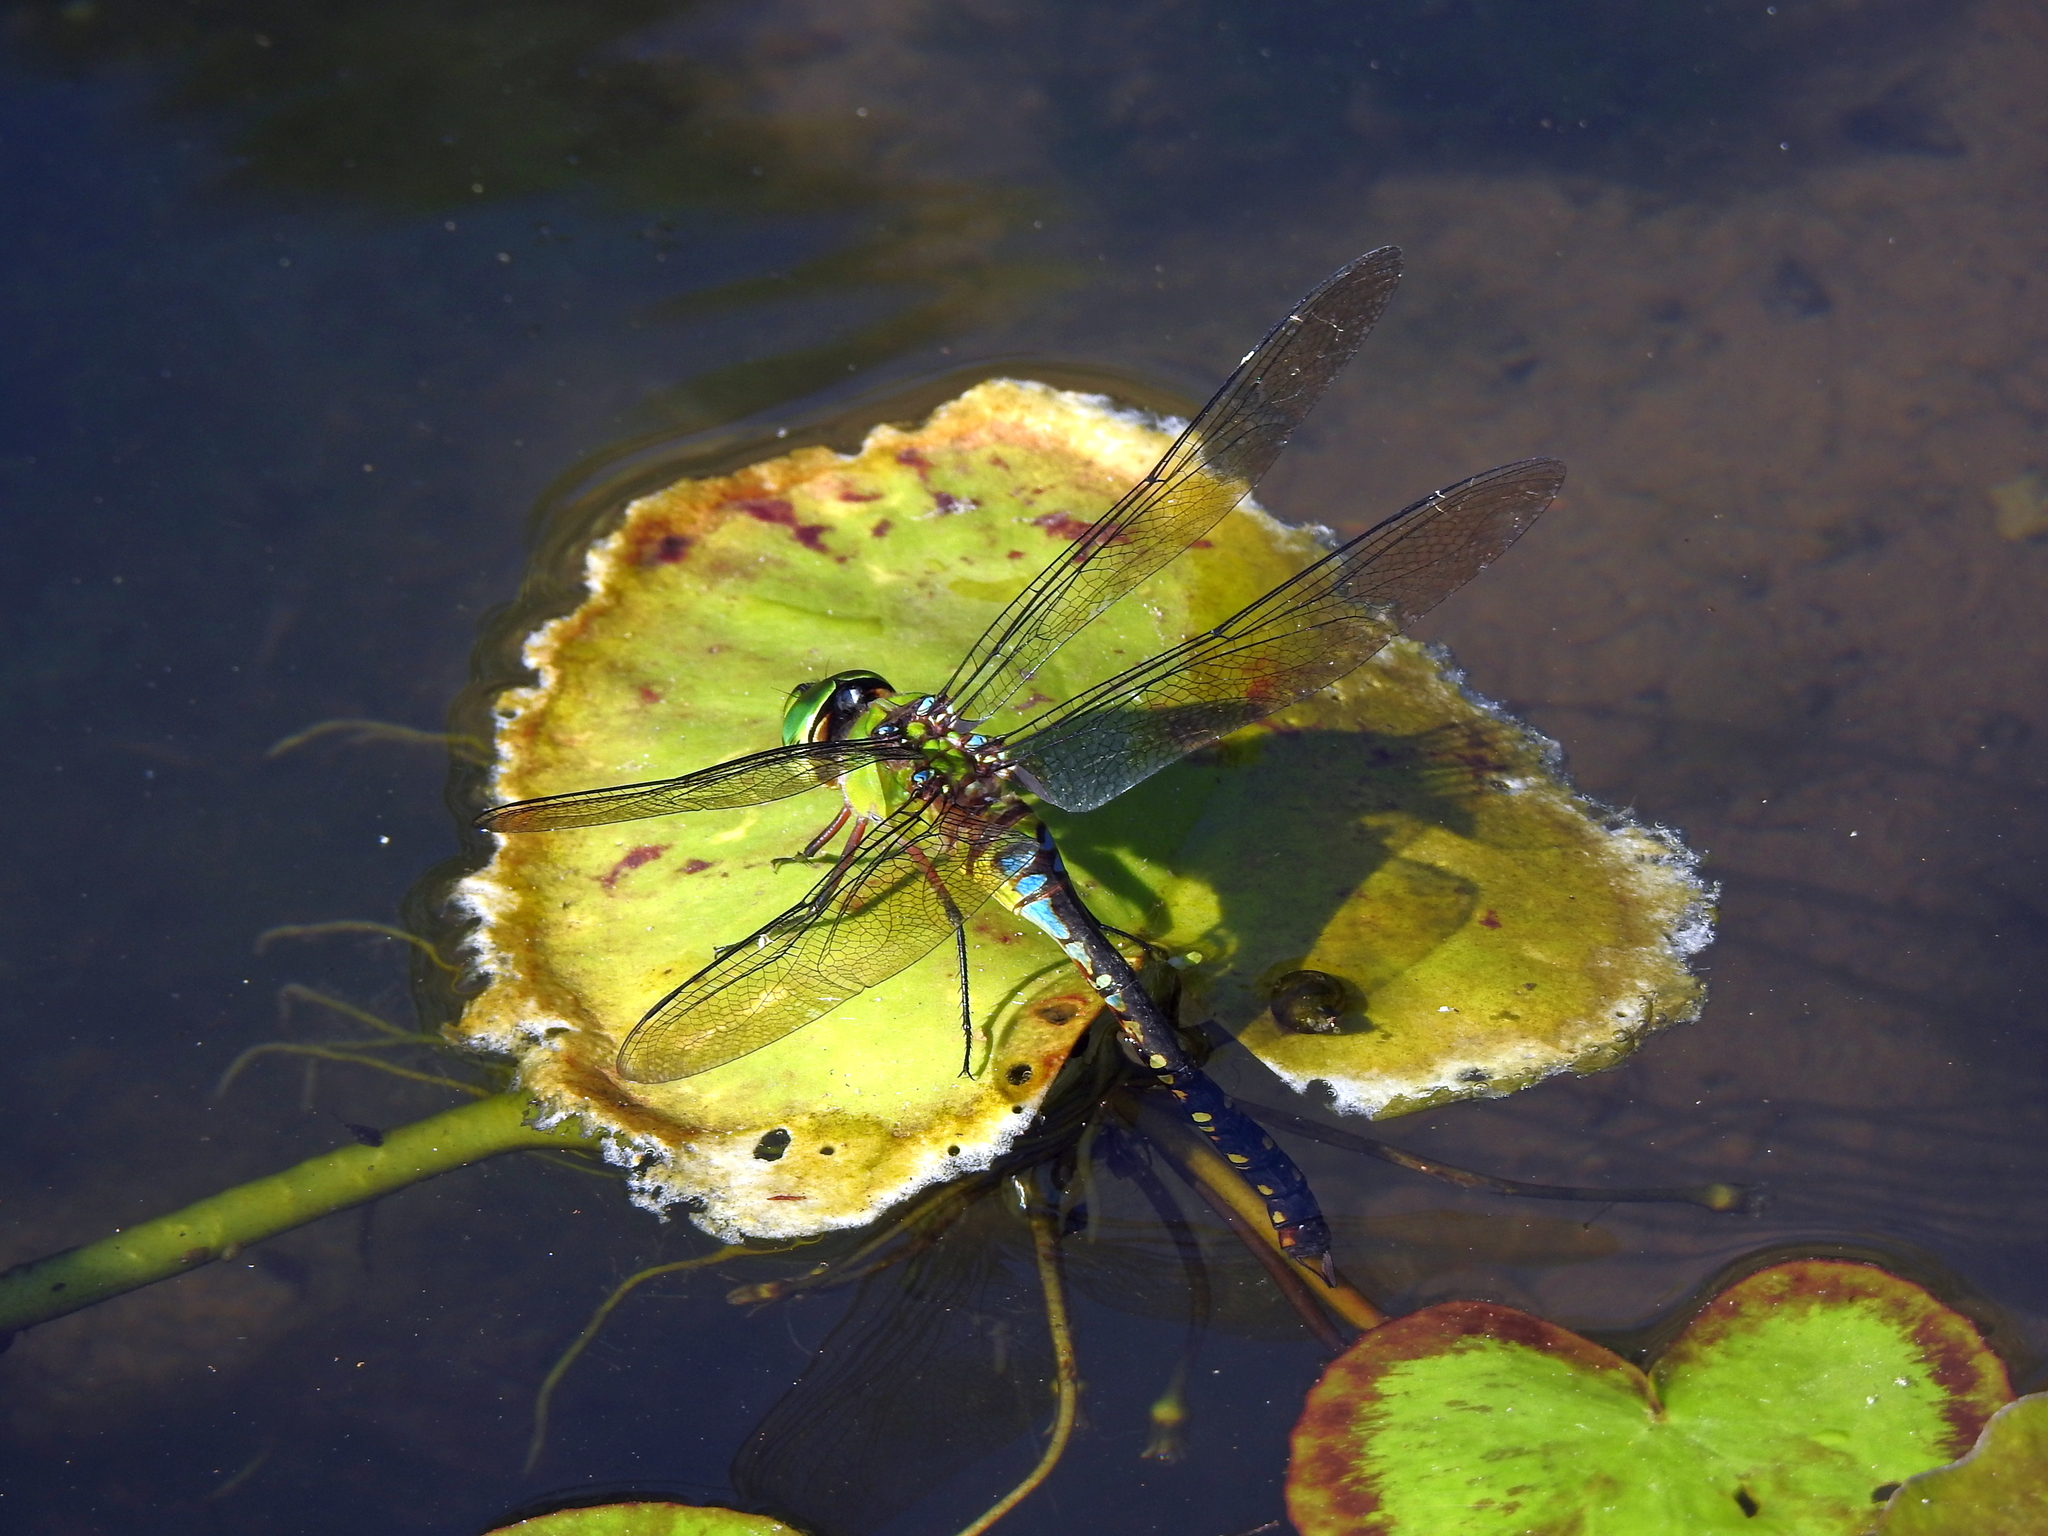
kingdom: Animalia
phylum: Arthropoda
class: Insecta
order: Odonata
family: Aeshnidae
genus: Anax
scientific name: Anax panybeus
